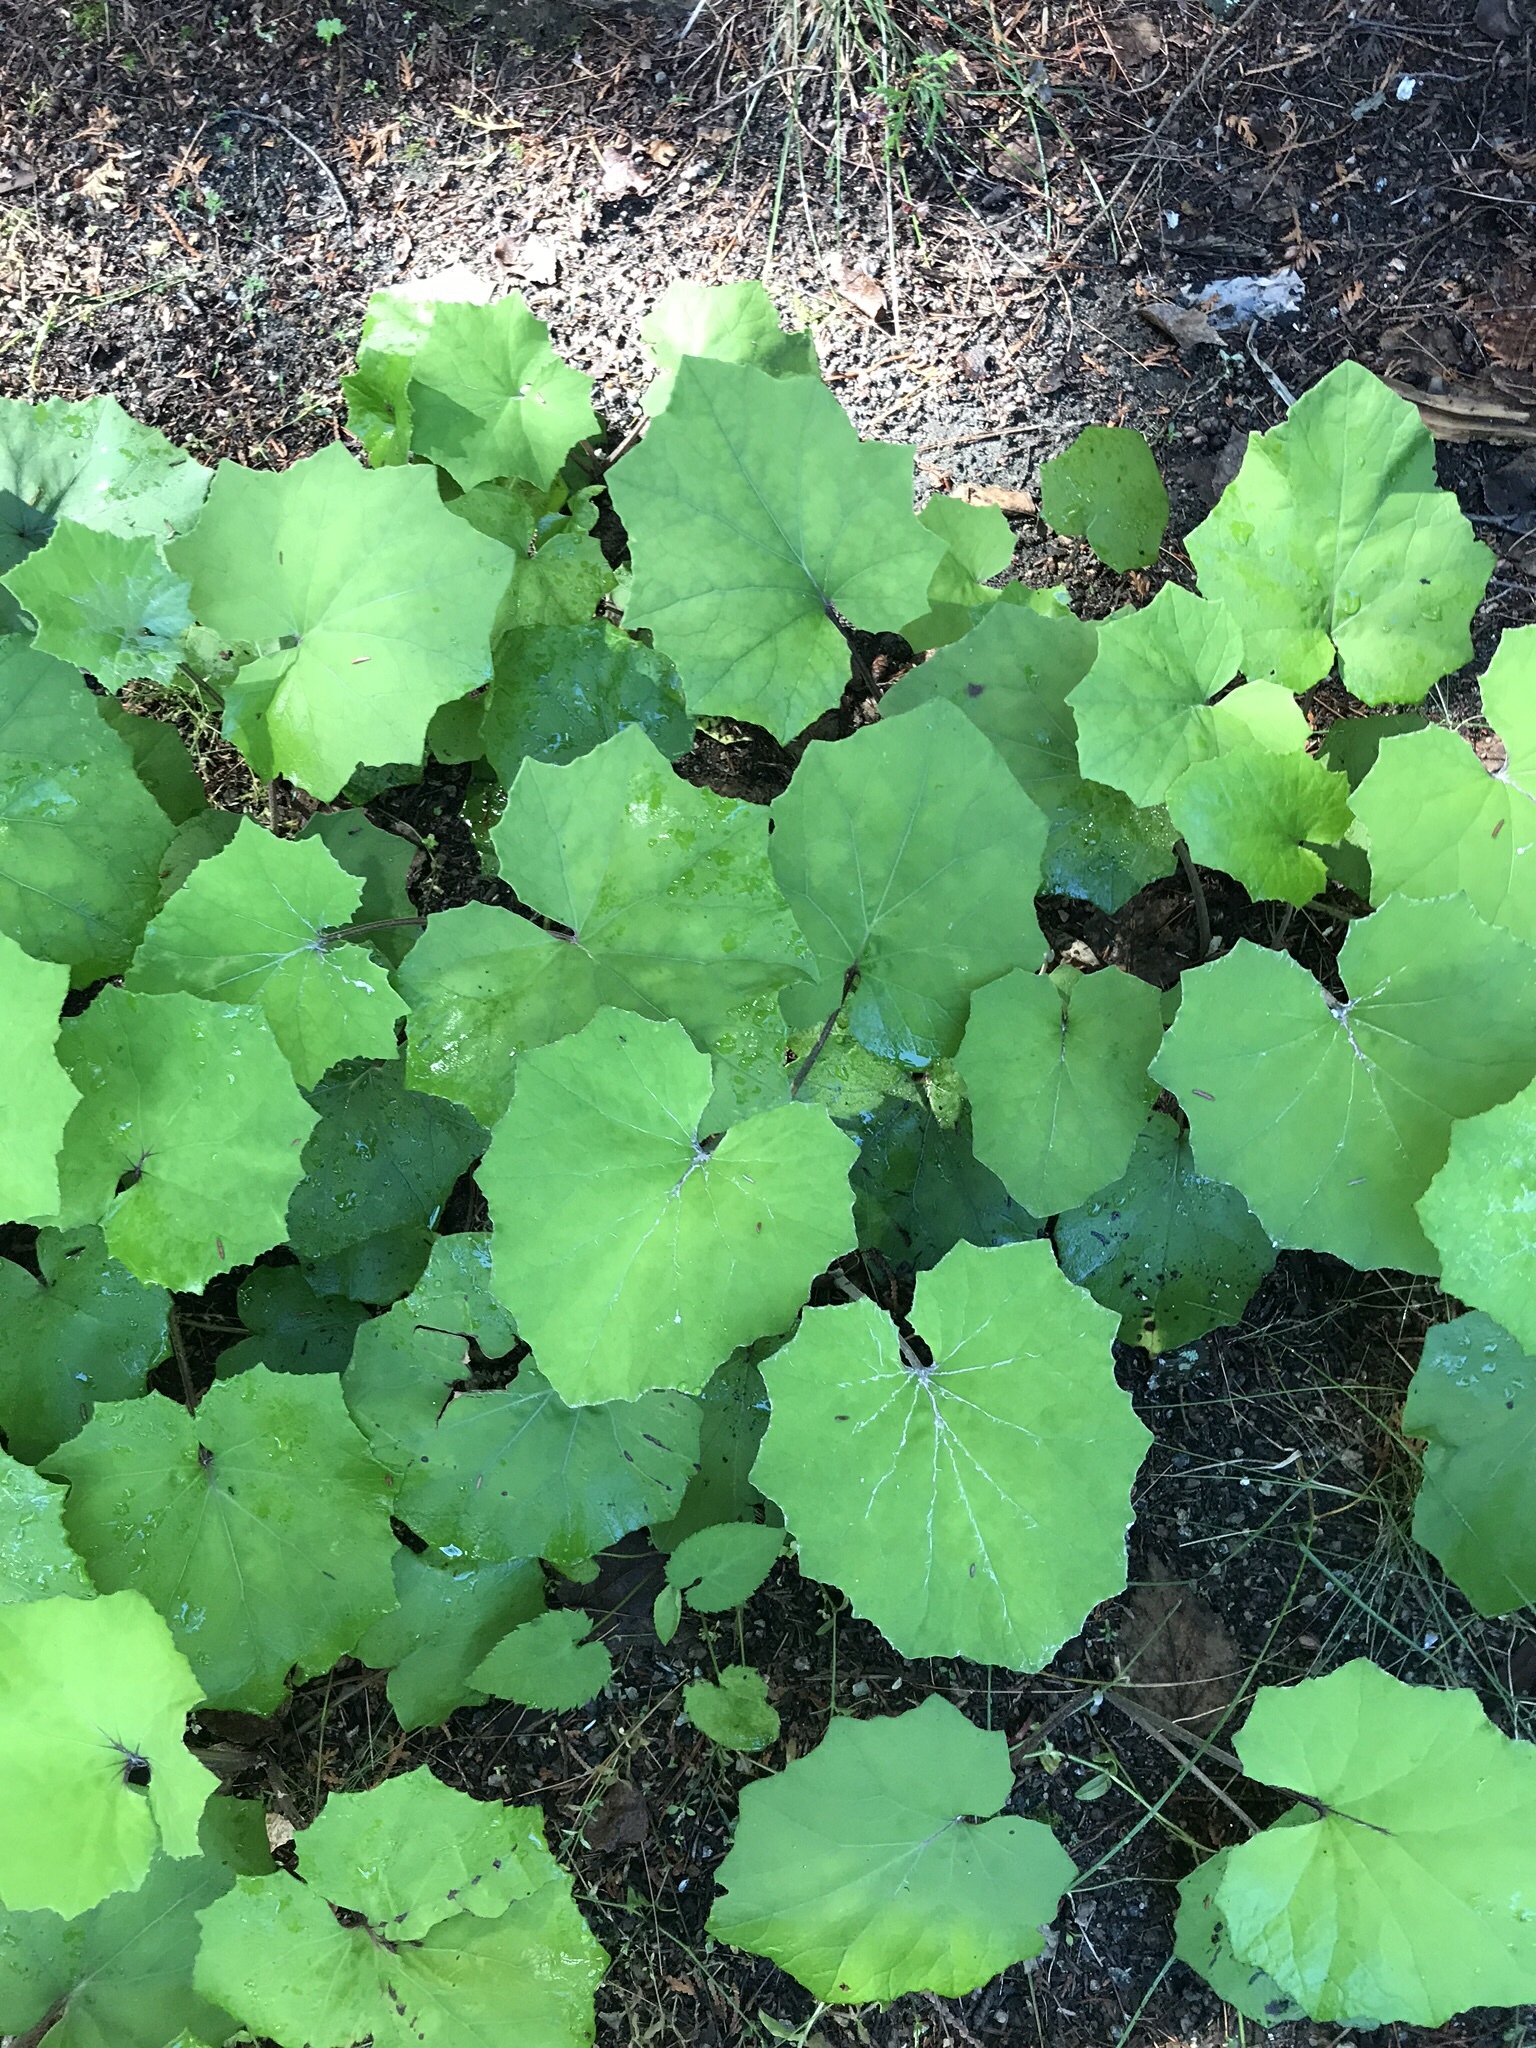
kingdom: Plantae
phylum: Tracheophyta
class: Magnoliopsida
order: Asterales
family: Asteraceae
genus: Tussilago
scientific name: Tussilago farfara
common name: Coltsfoot
